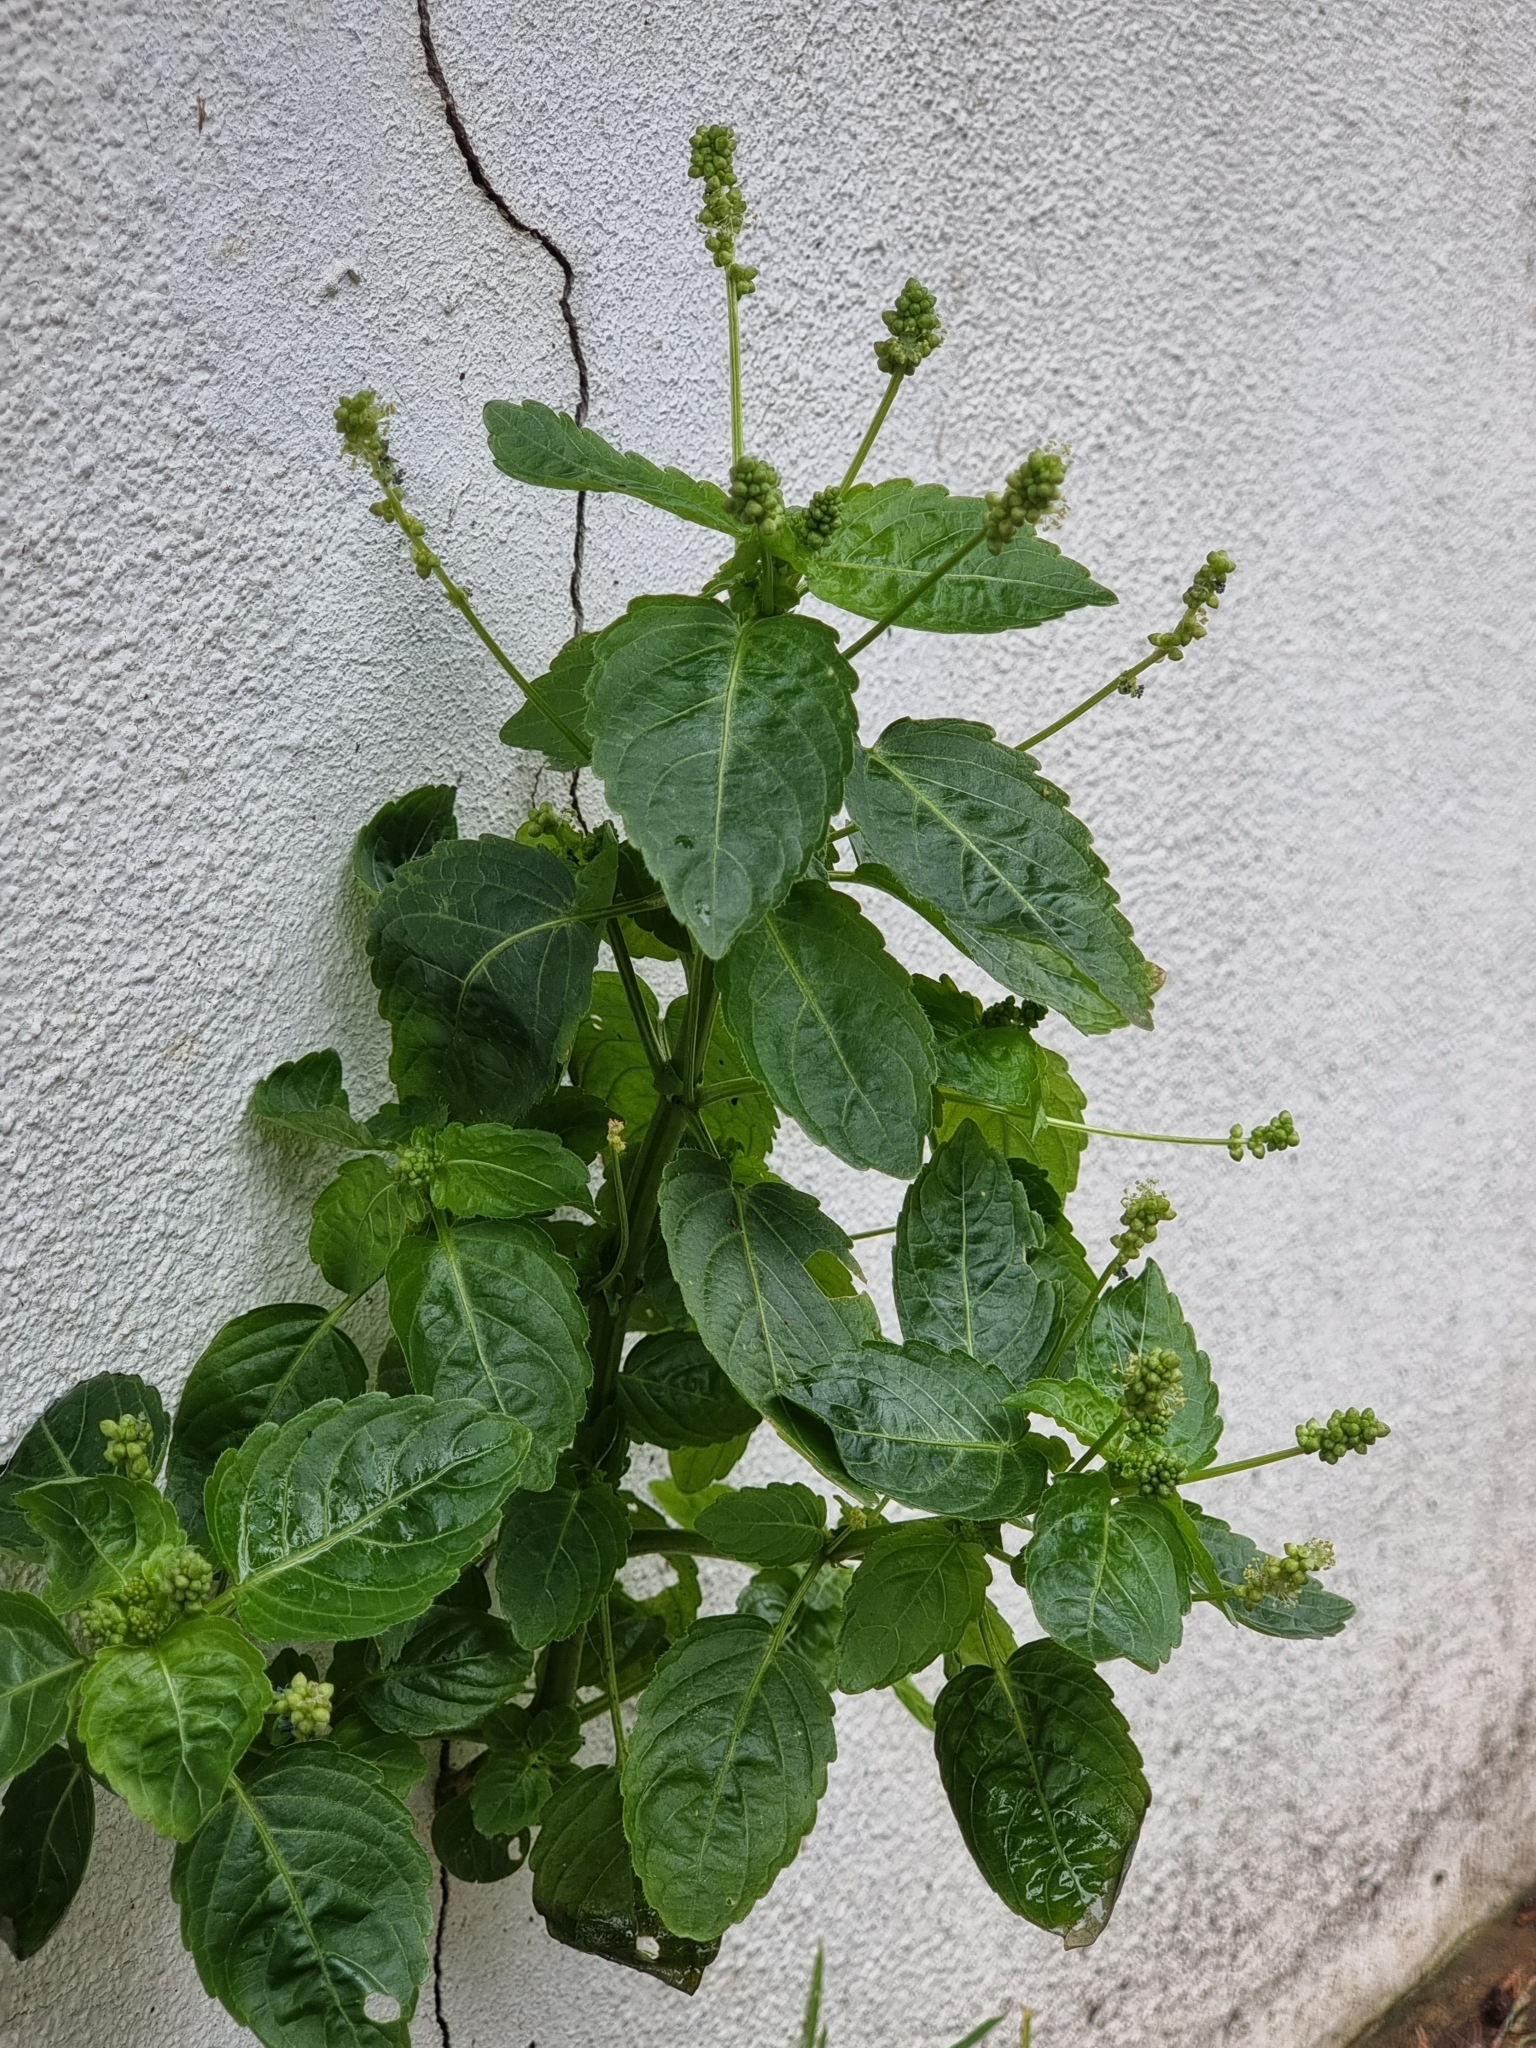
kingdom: Plantae
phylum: Tracheophyta
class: Magnoliopsida
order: Malpighiales
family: Euphorbiaceae
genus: Mercurialis
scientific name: Mercurialis annua
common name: Annual mercury
